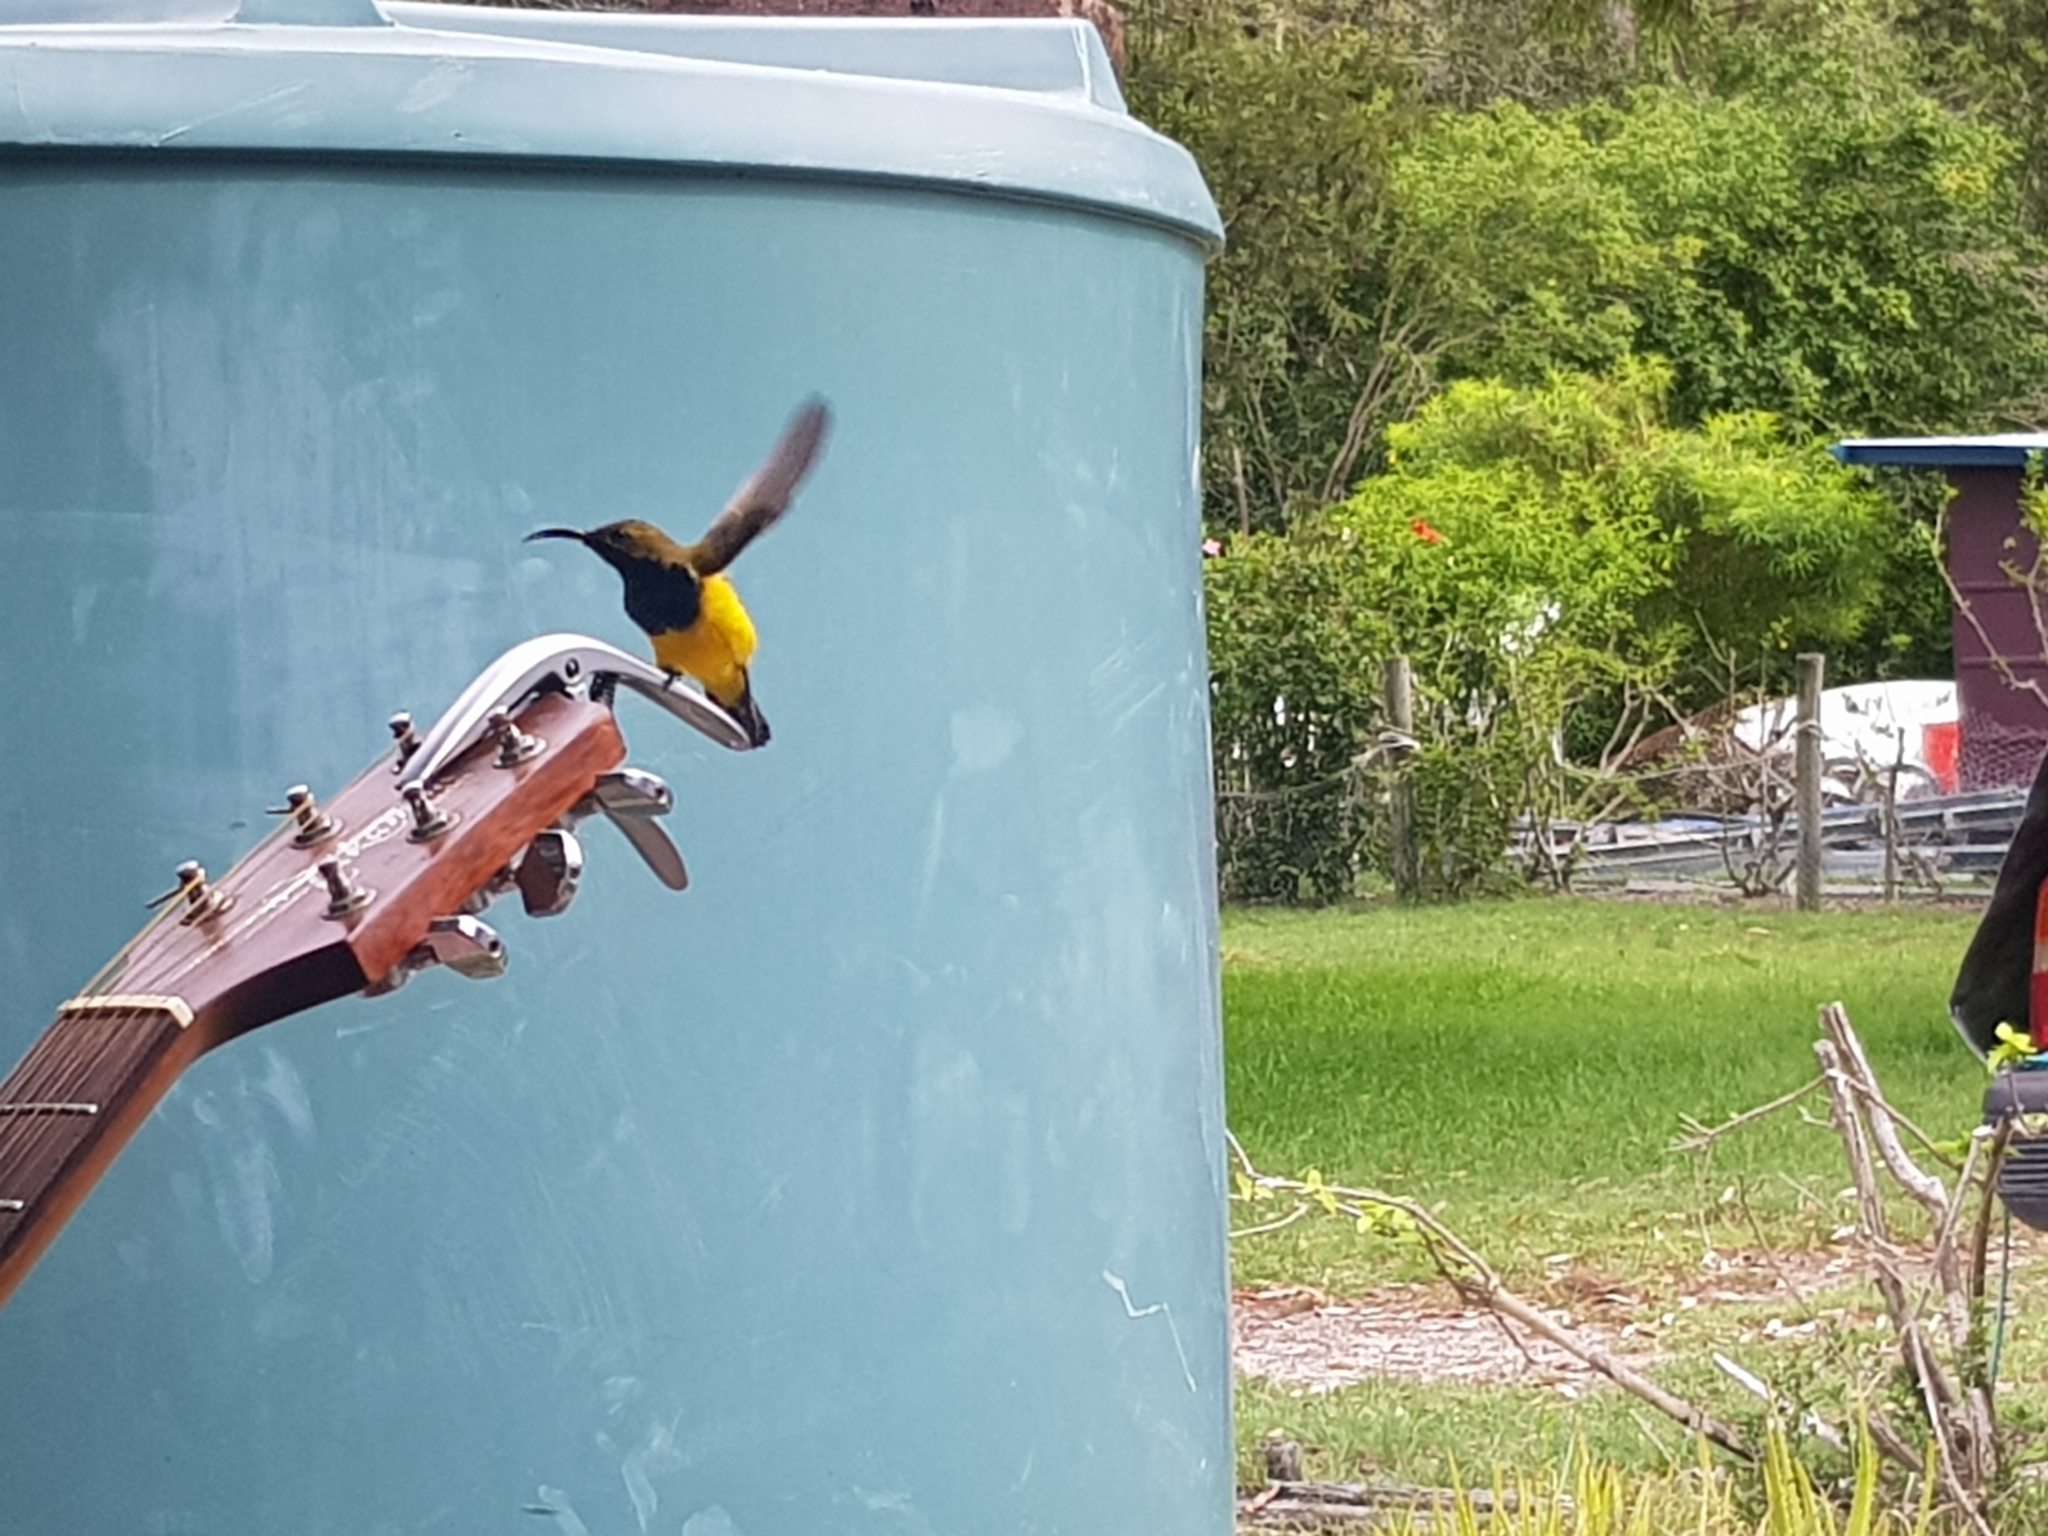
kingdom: Animalia
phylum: Chordata
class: Aves
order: Passeriformes
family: Nectariniidae
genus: Cinnyris
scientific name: Cinnyris
